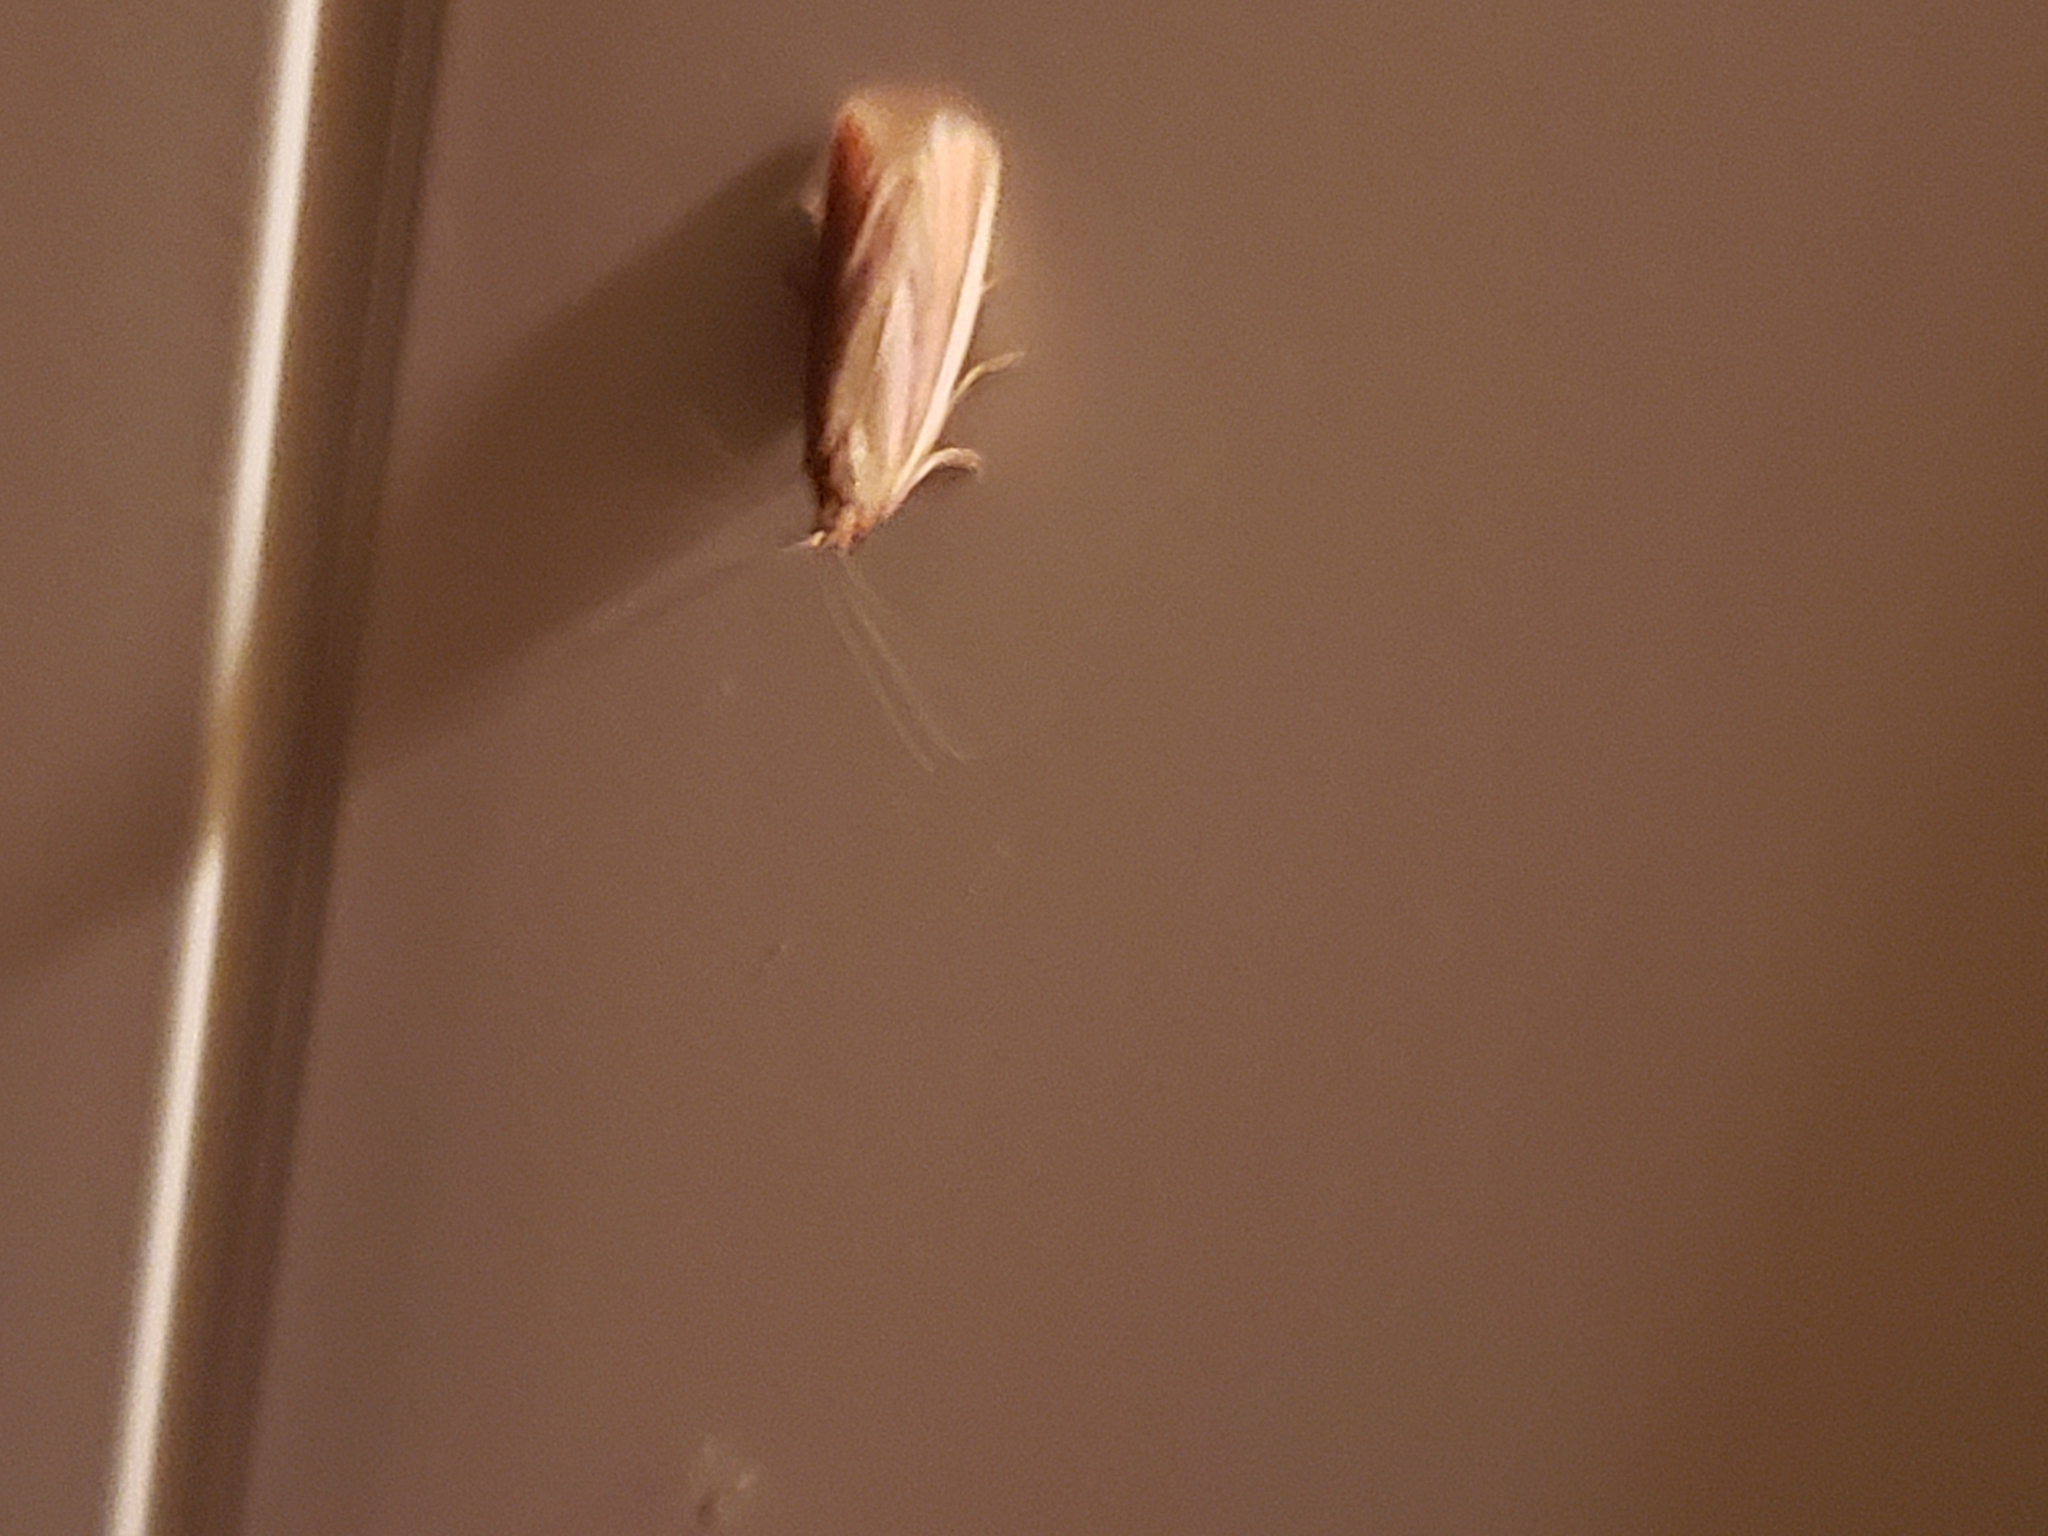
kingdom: Animalia
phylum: Arthropoda
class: Insecta
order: Lepidoptera
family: Pyralidae
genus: Peoria
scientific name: Peoria roseotinctella
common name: Rosy peoria moth
